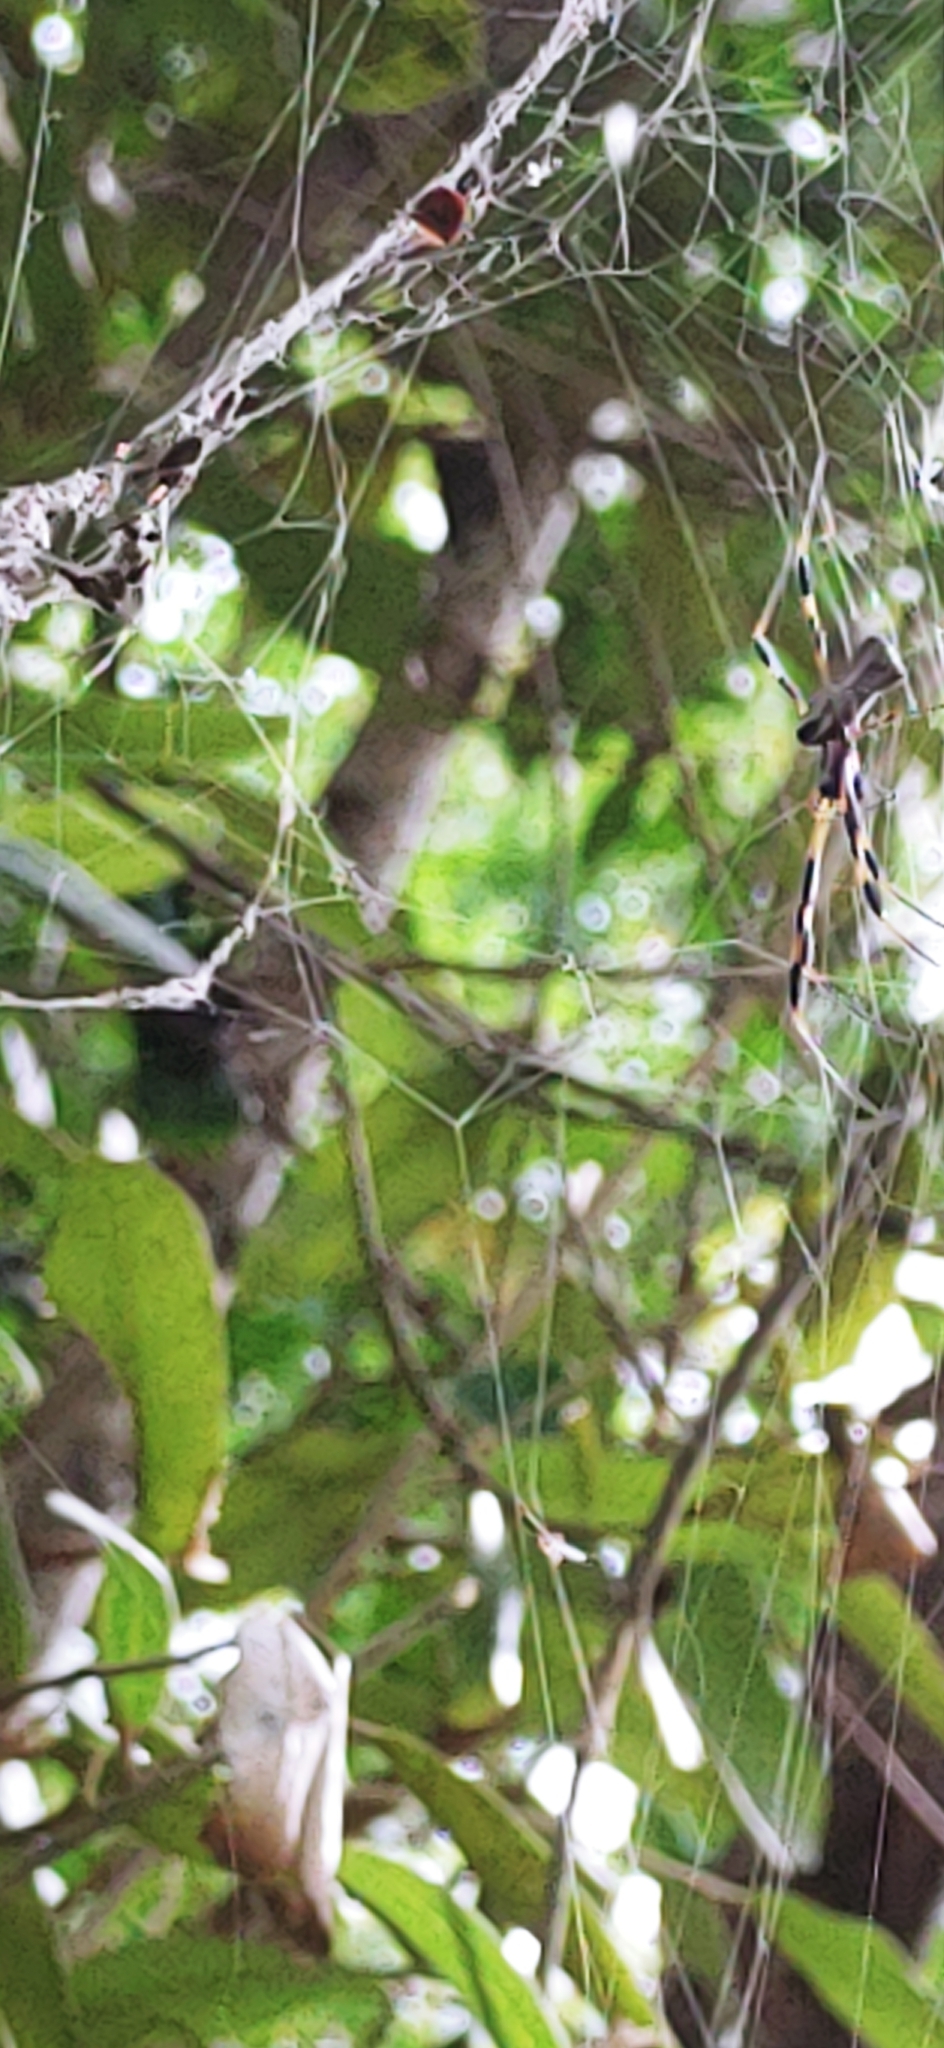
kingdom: Animalia
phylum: Arthropoda
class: Arachnida
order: Araneae
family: Araneidae
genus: Trichonephila
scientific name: Trichonephila clavipes
